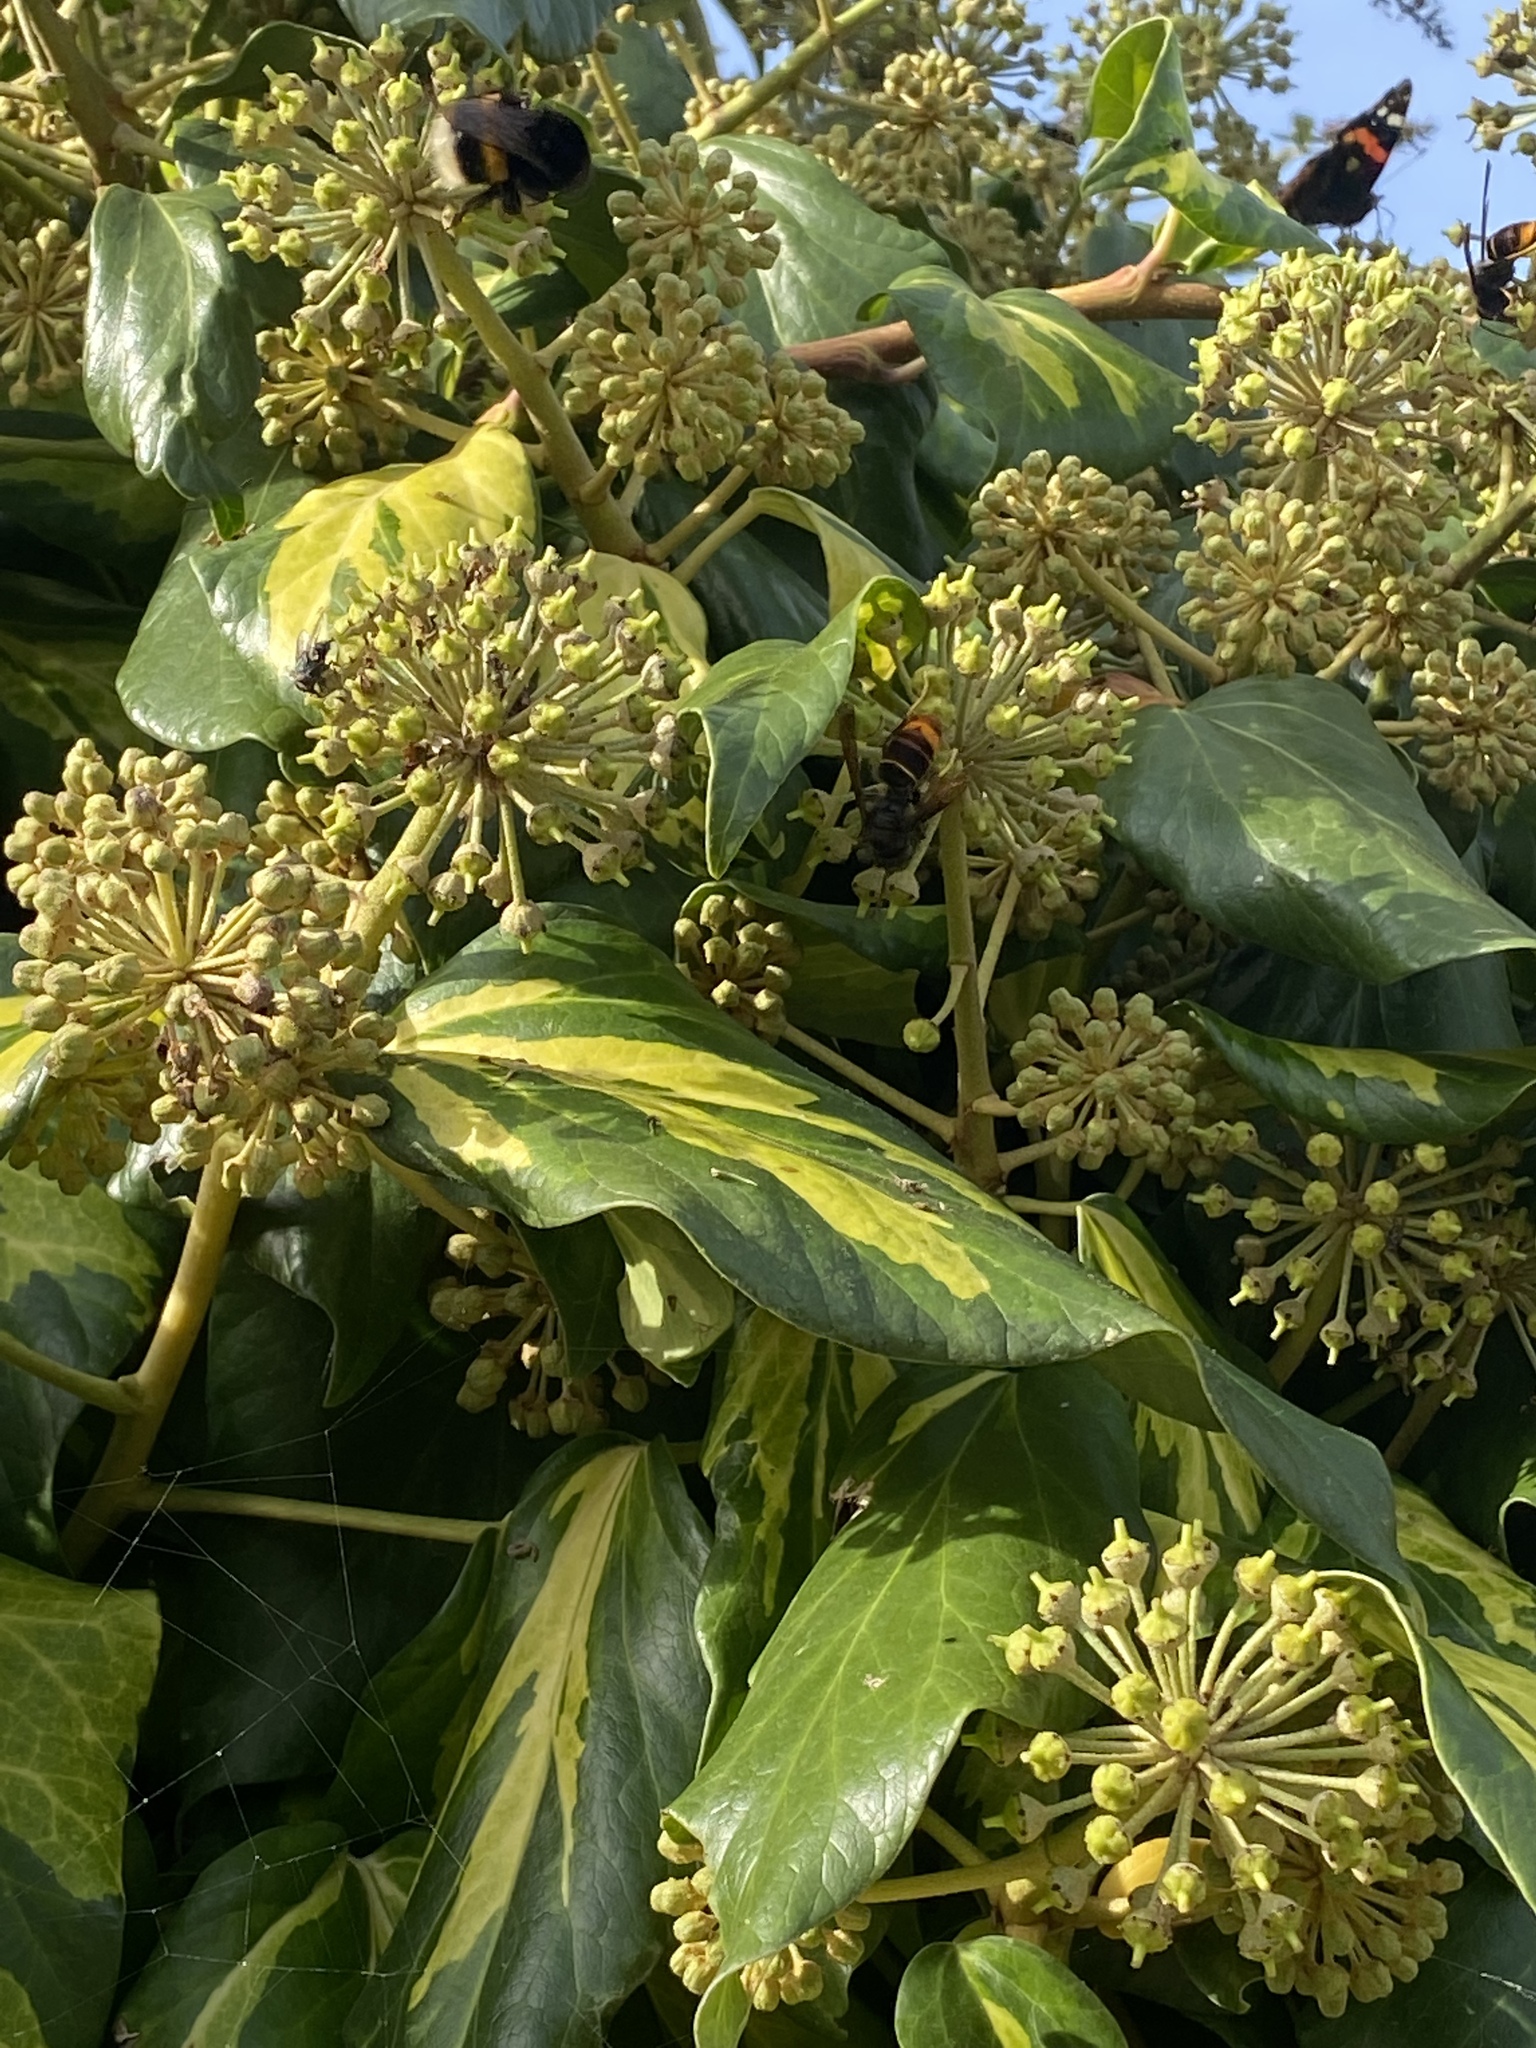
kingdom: Animalia
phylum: Arthropoda
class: Insecta
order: Hymenoptera
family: Vespidae
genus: Vespa
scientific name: Vespa velutina
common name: Asian hornet
